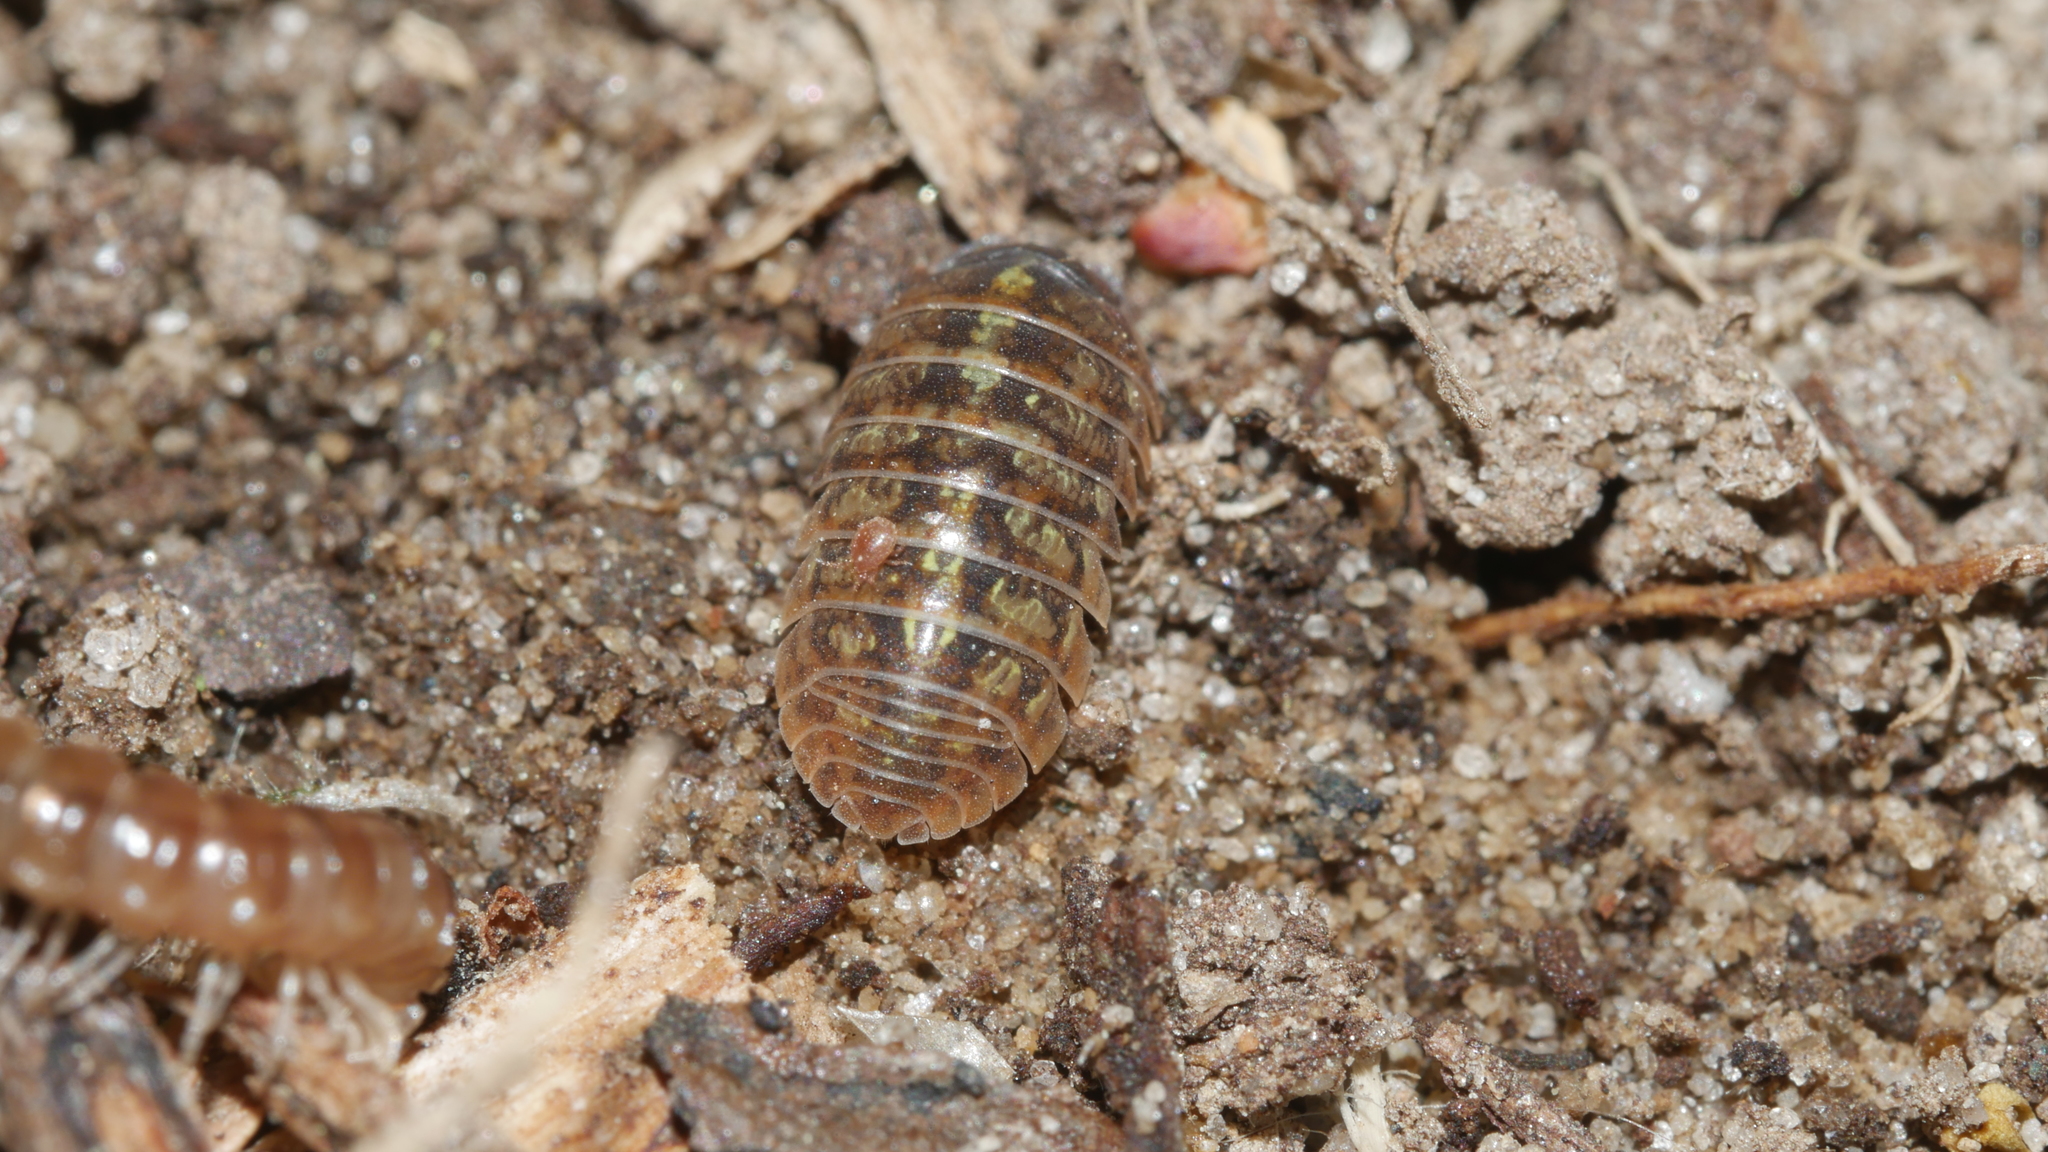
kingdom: Animalia
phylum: Arthropoda
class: Malacostraca
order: Isopoda
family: Armadillidiidae
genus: Armadillidium
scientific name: Armadillidium vulgare
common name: Common pill woodlouse
